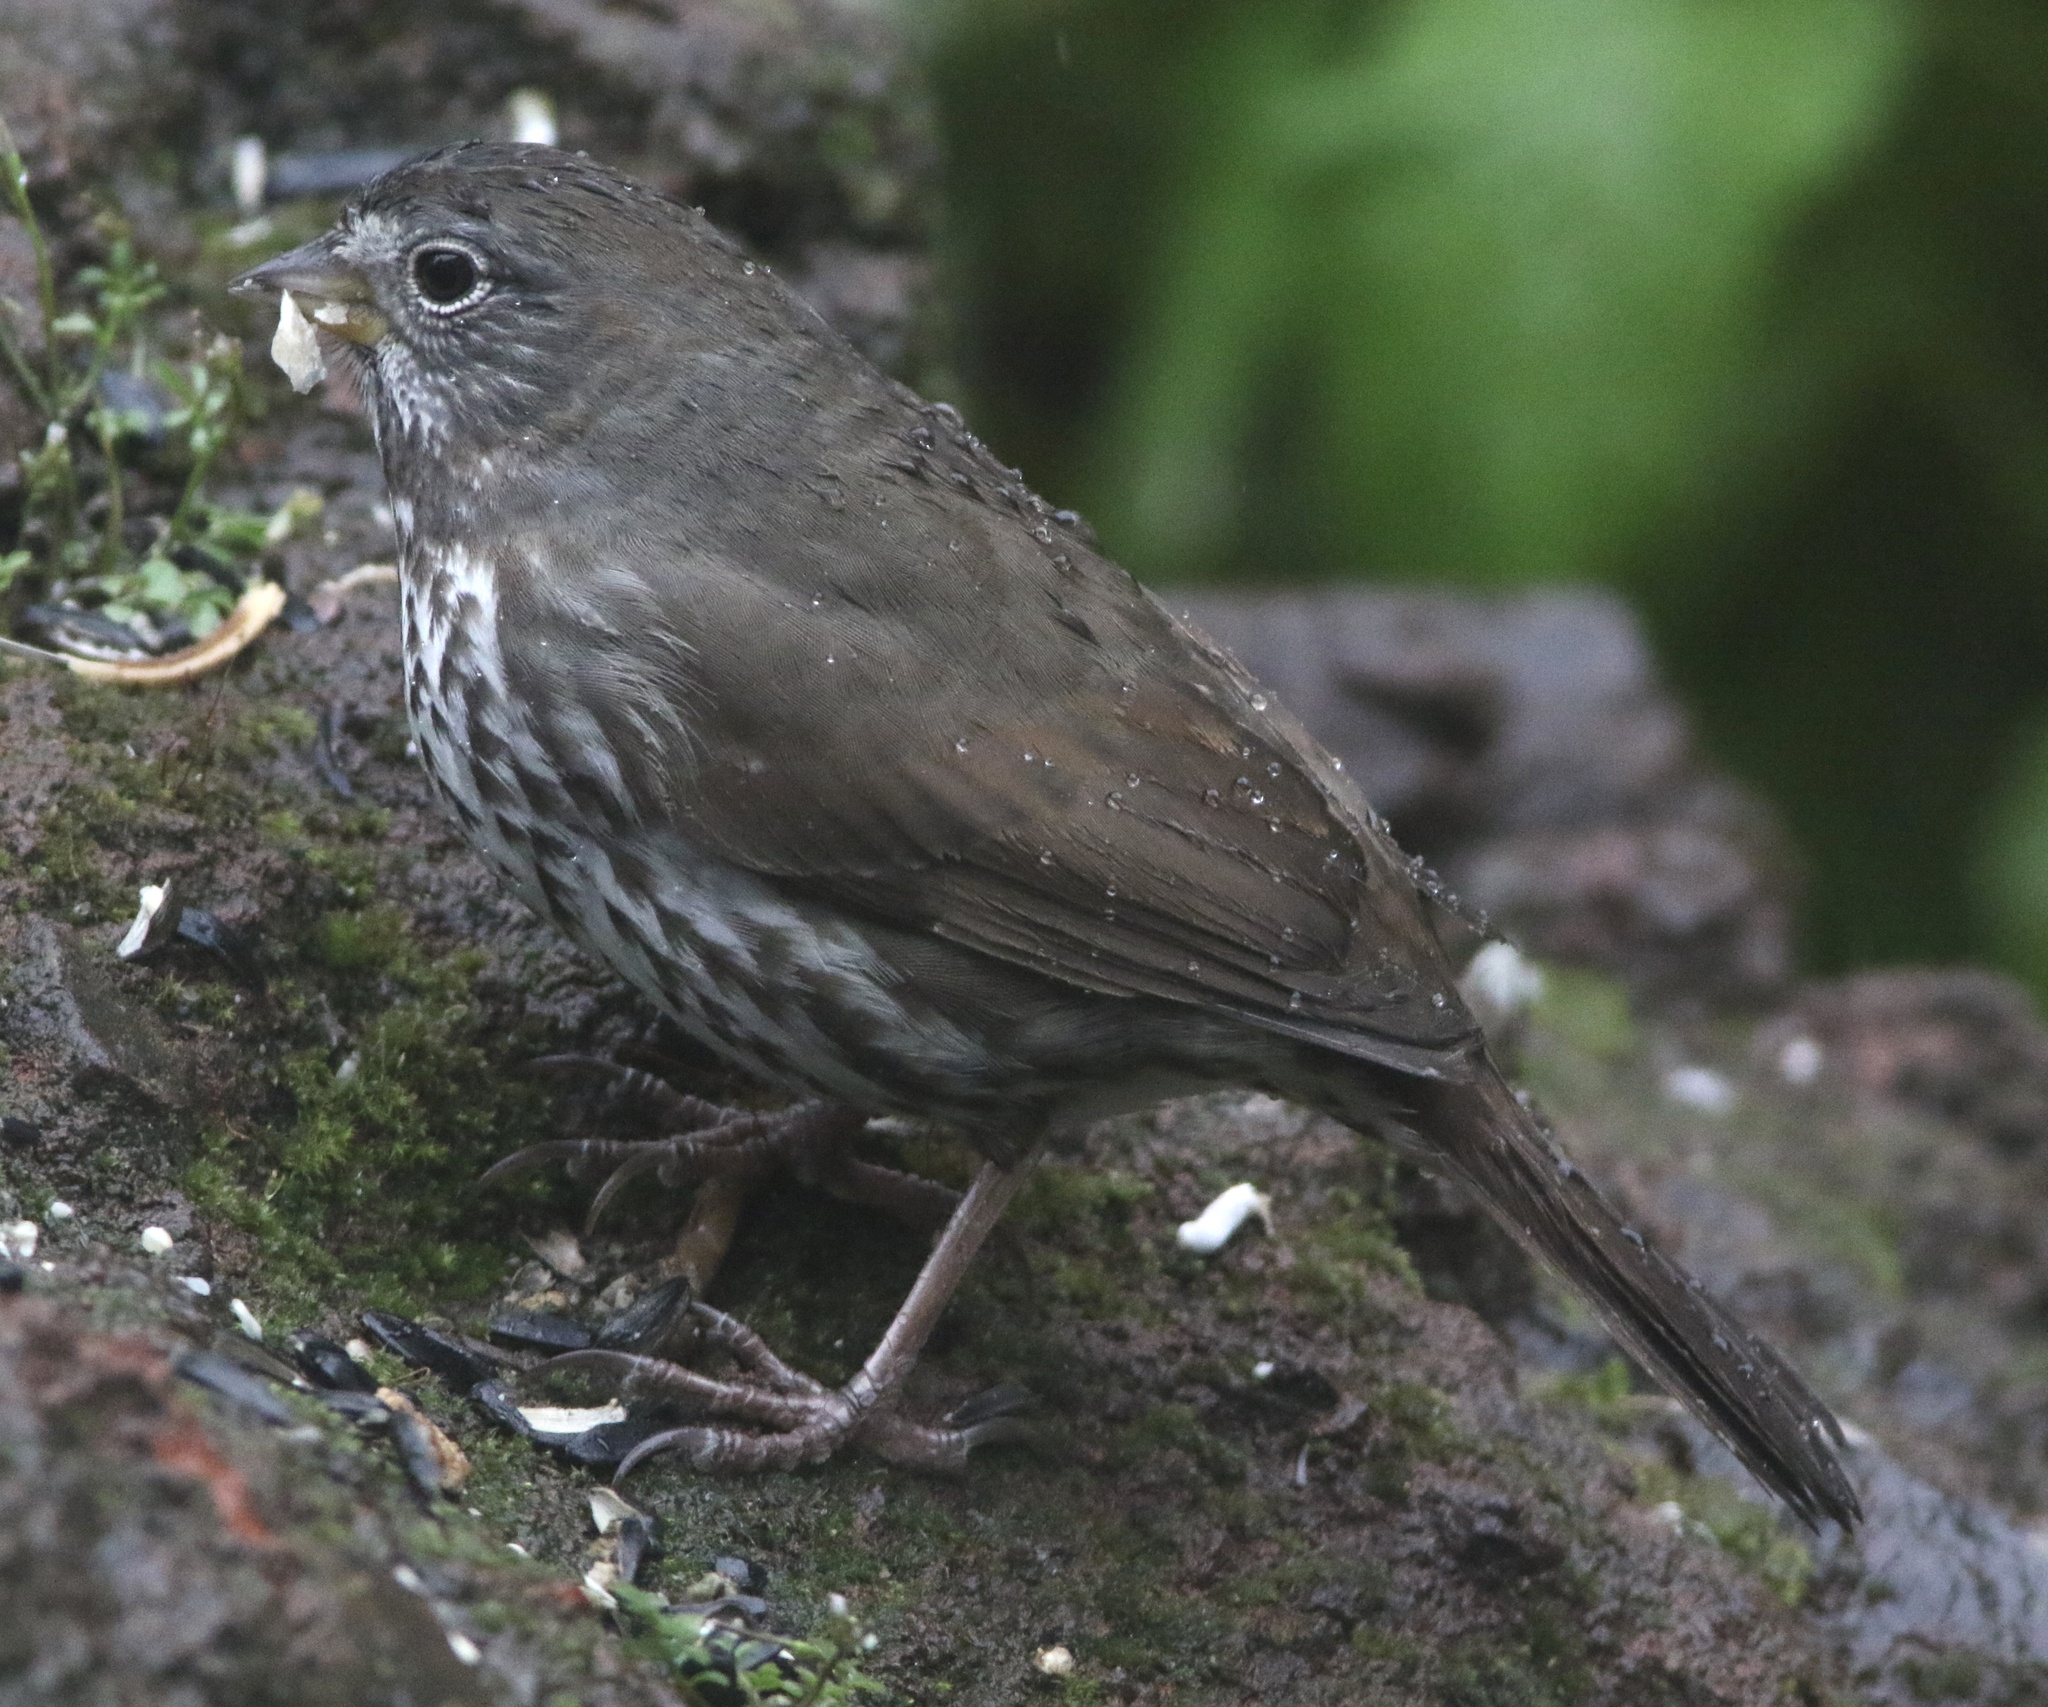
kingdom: Animalia
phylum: Chordata
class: Aves
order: Passeriformes
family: Passerellidae
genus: Passerella
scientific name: Passerella iliaca
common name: Fox sparrow
